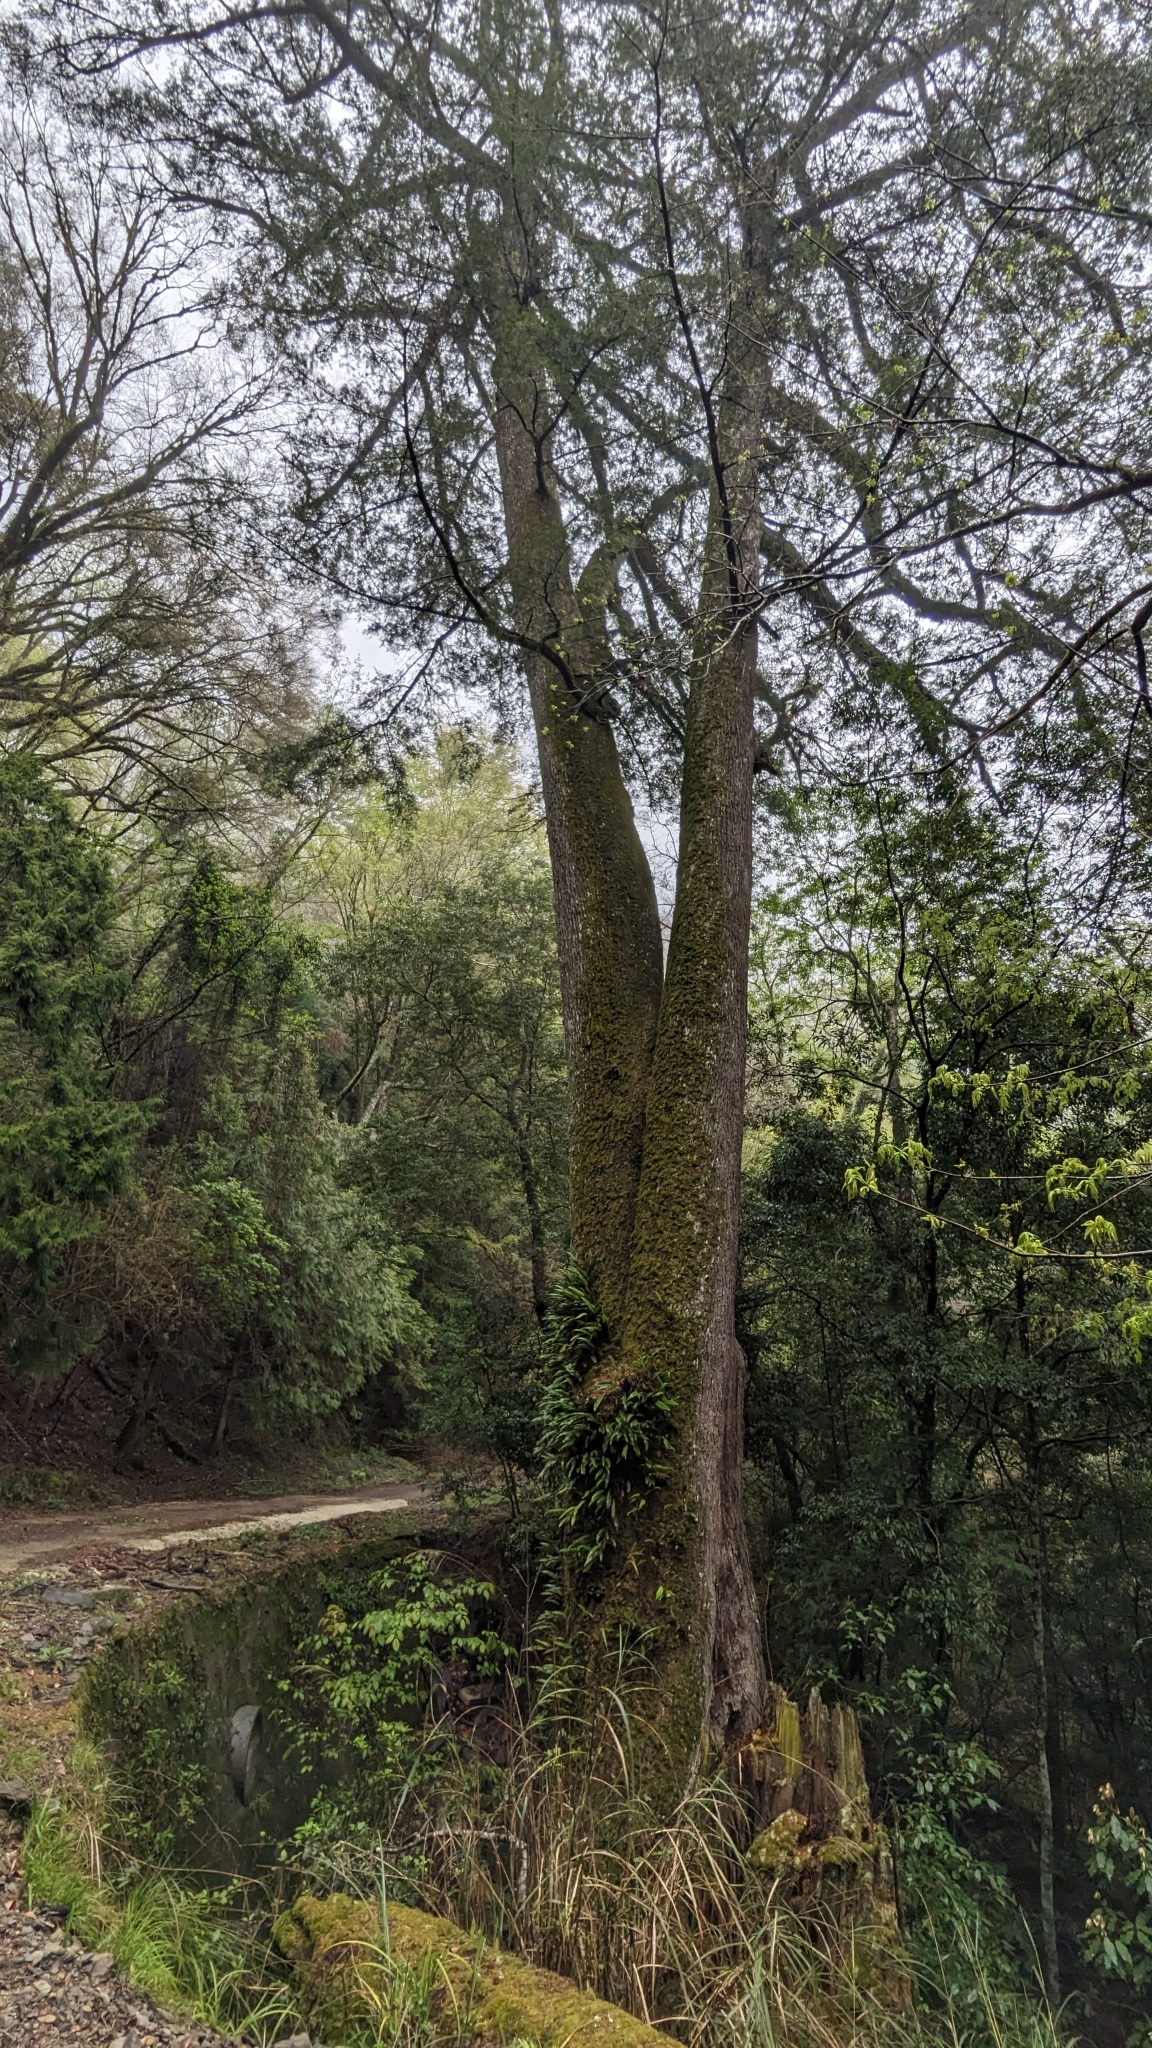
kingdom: Plantae
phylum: Tracheophyta
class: Pinopsida
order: Pinales
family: Pinaceae
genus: Pseudotsuga
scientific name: Pseudotsuga sinensis
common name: Chinese douglas-fir
